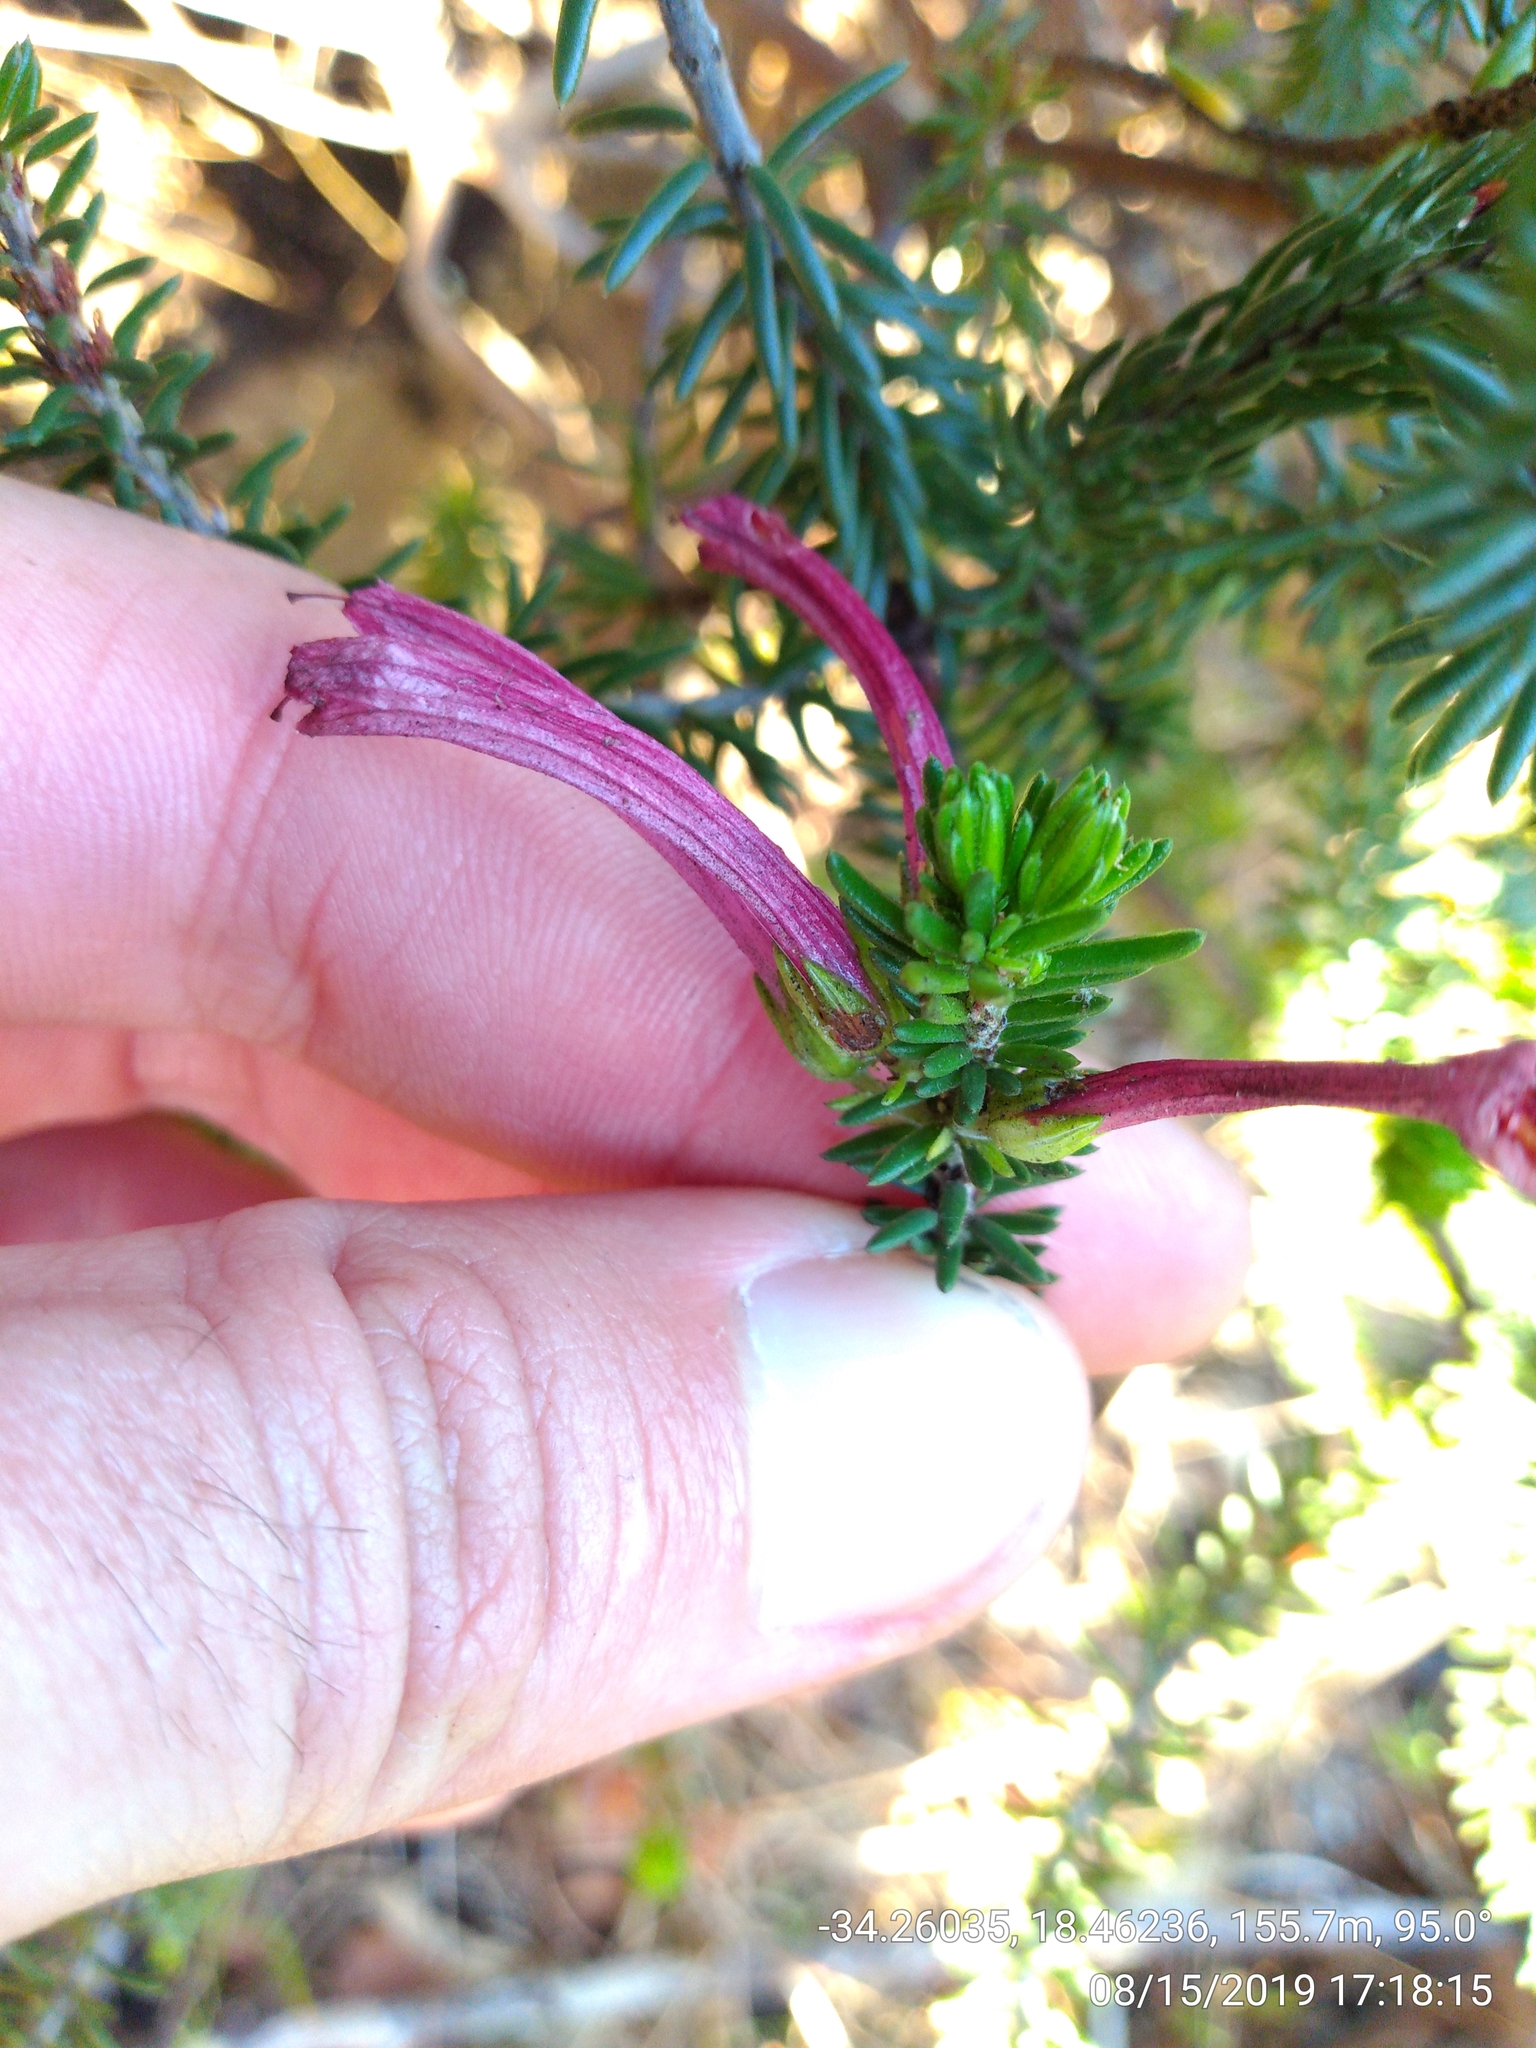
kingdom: Plantae
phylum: Tracheophyta
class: Magnoliopsida
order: Ericales
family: Ericaceae
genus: Erica
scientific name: Erica abietina
